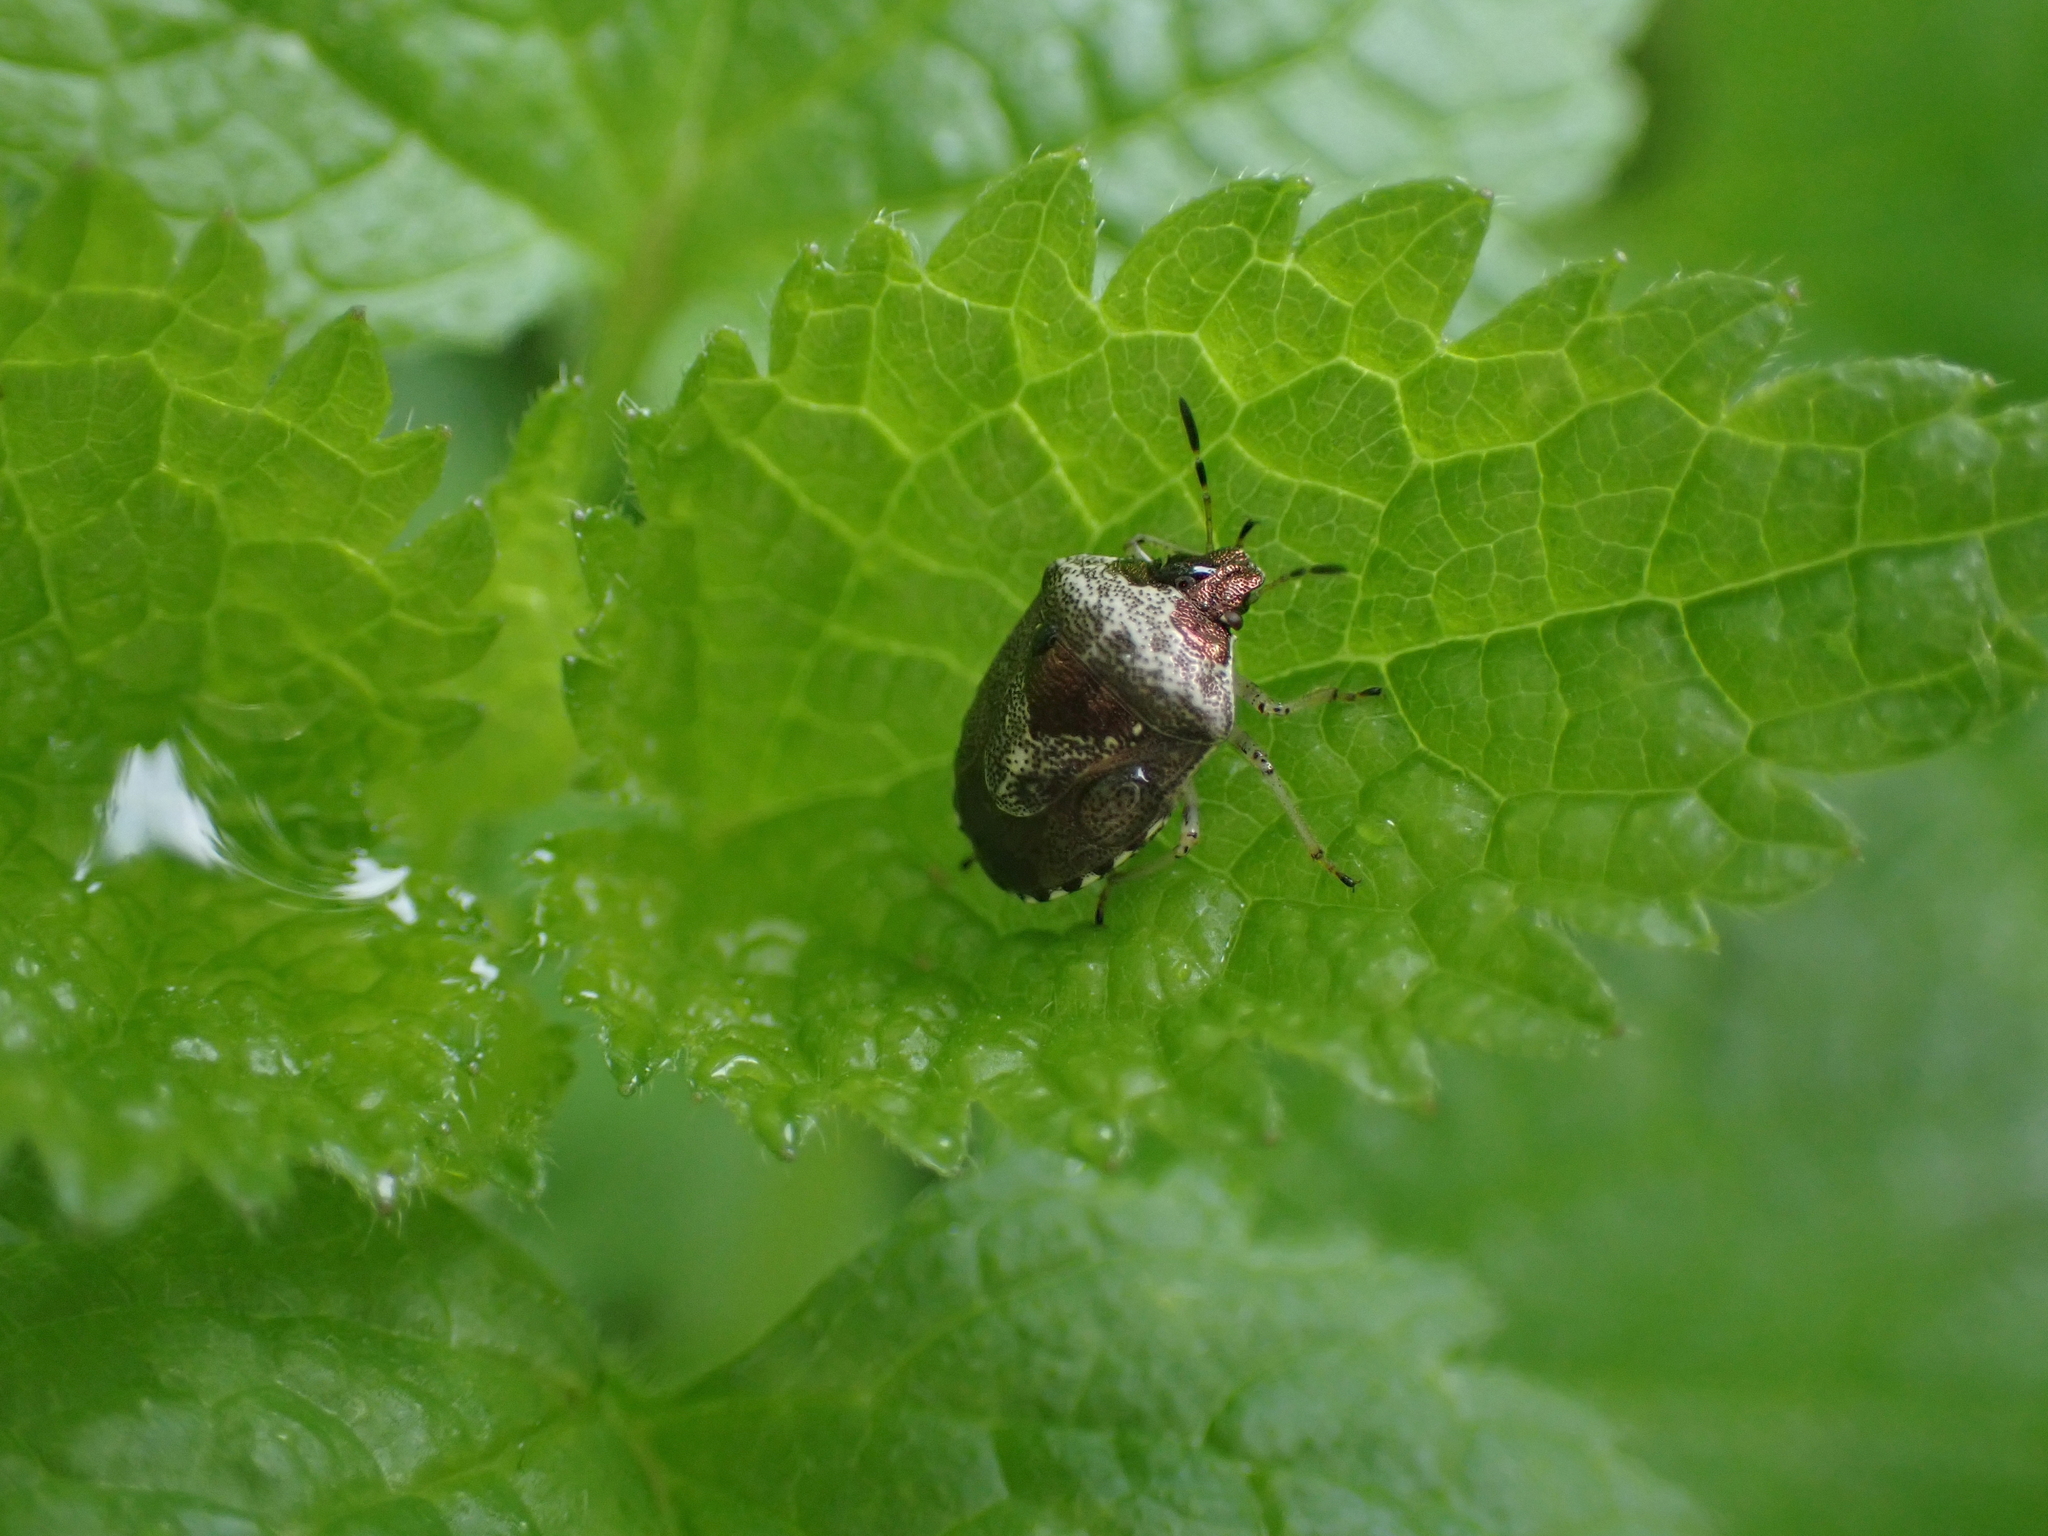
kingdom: Animalia
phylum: Arthropoda
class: Insecta
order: Hemiptera
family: Pentatomidae
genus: Eysarcoris
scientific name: Eysarcoris venustissimus
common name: Woundwort shieldbug
